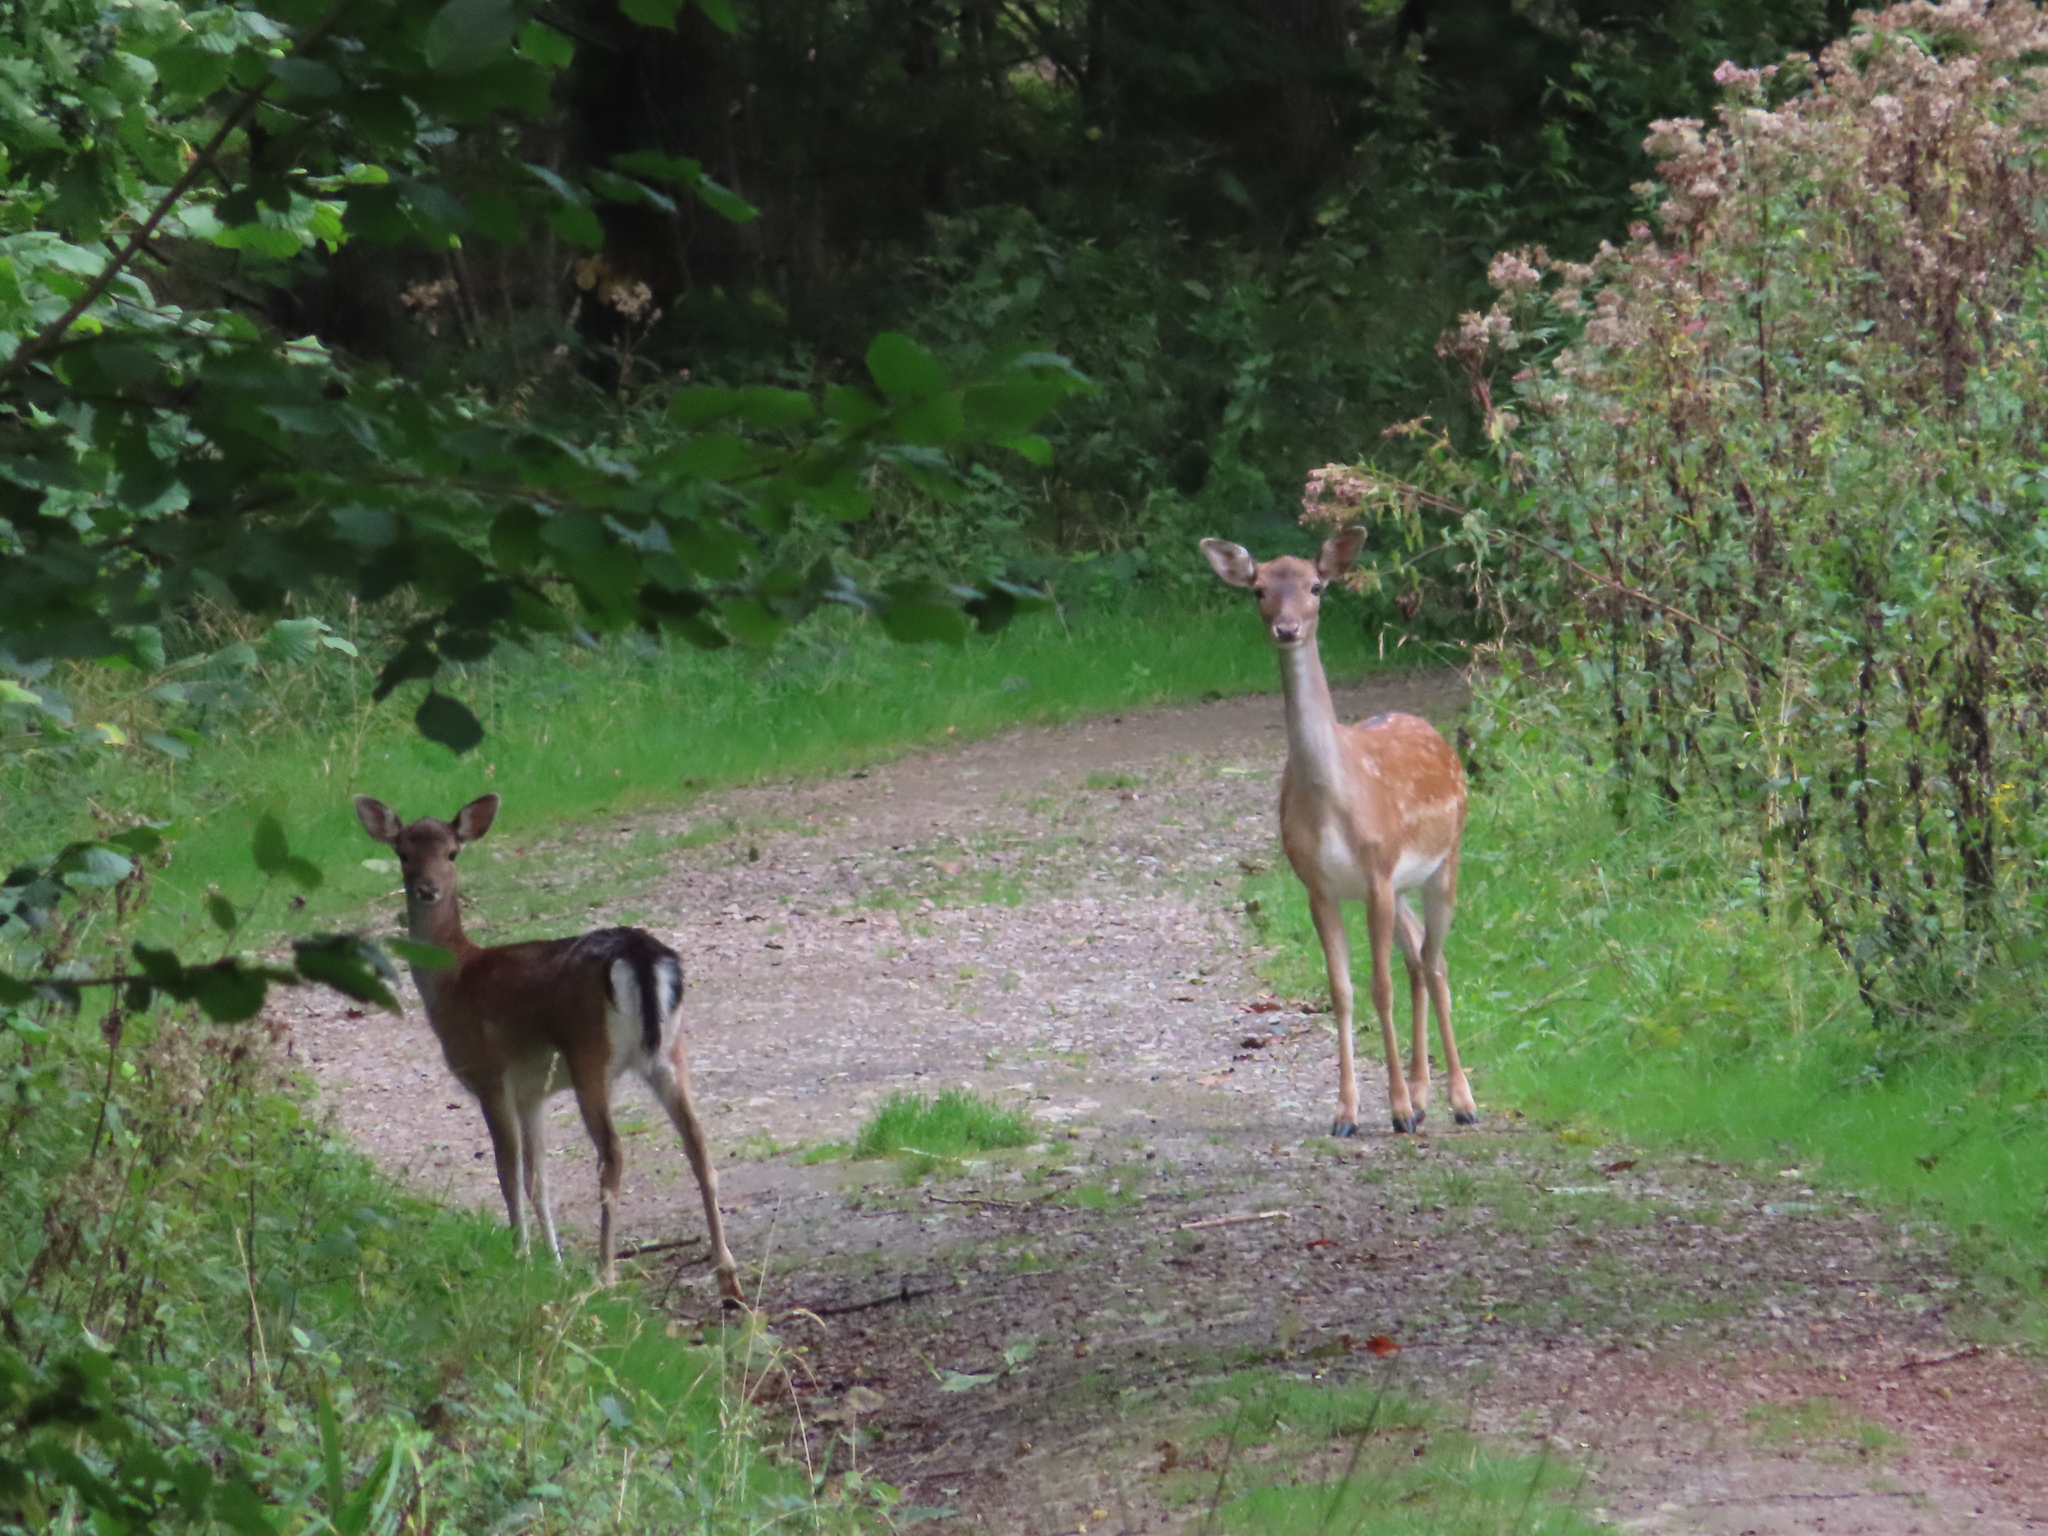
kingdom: Animalia
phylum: Chordata
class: Mammalia
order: Artiodactyla
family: Cervidae
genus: Dama
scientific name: Dama dama
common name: Fallow deer
